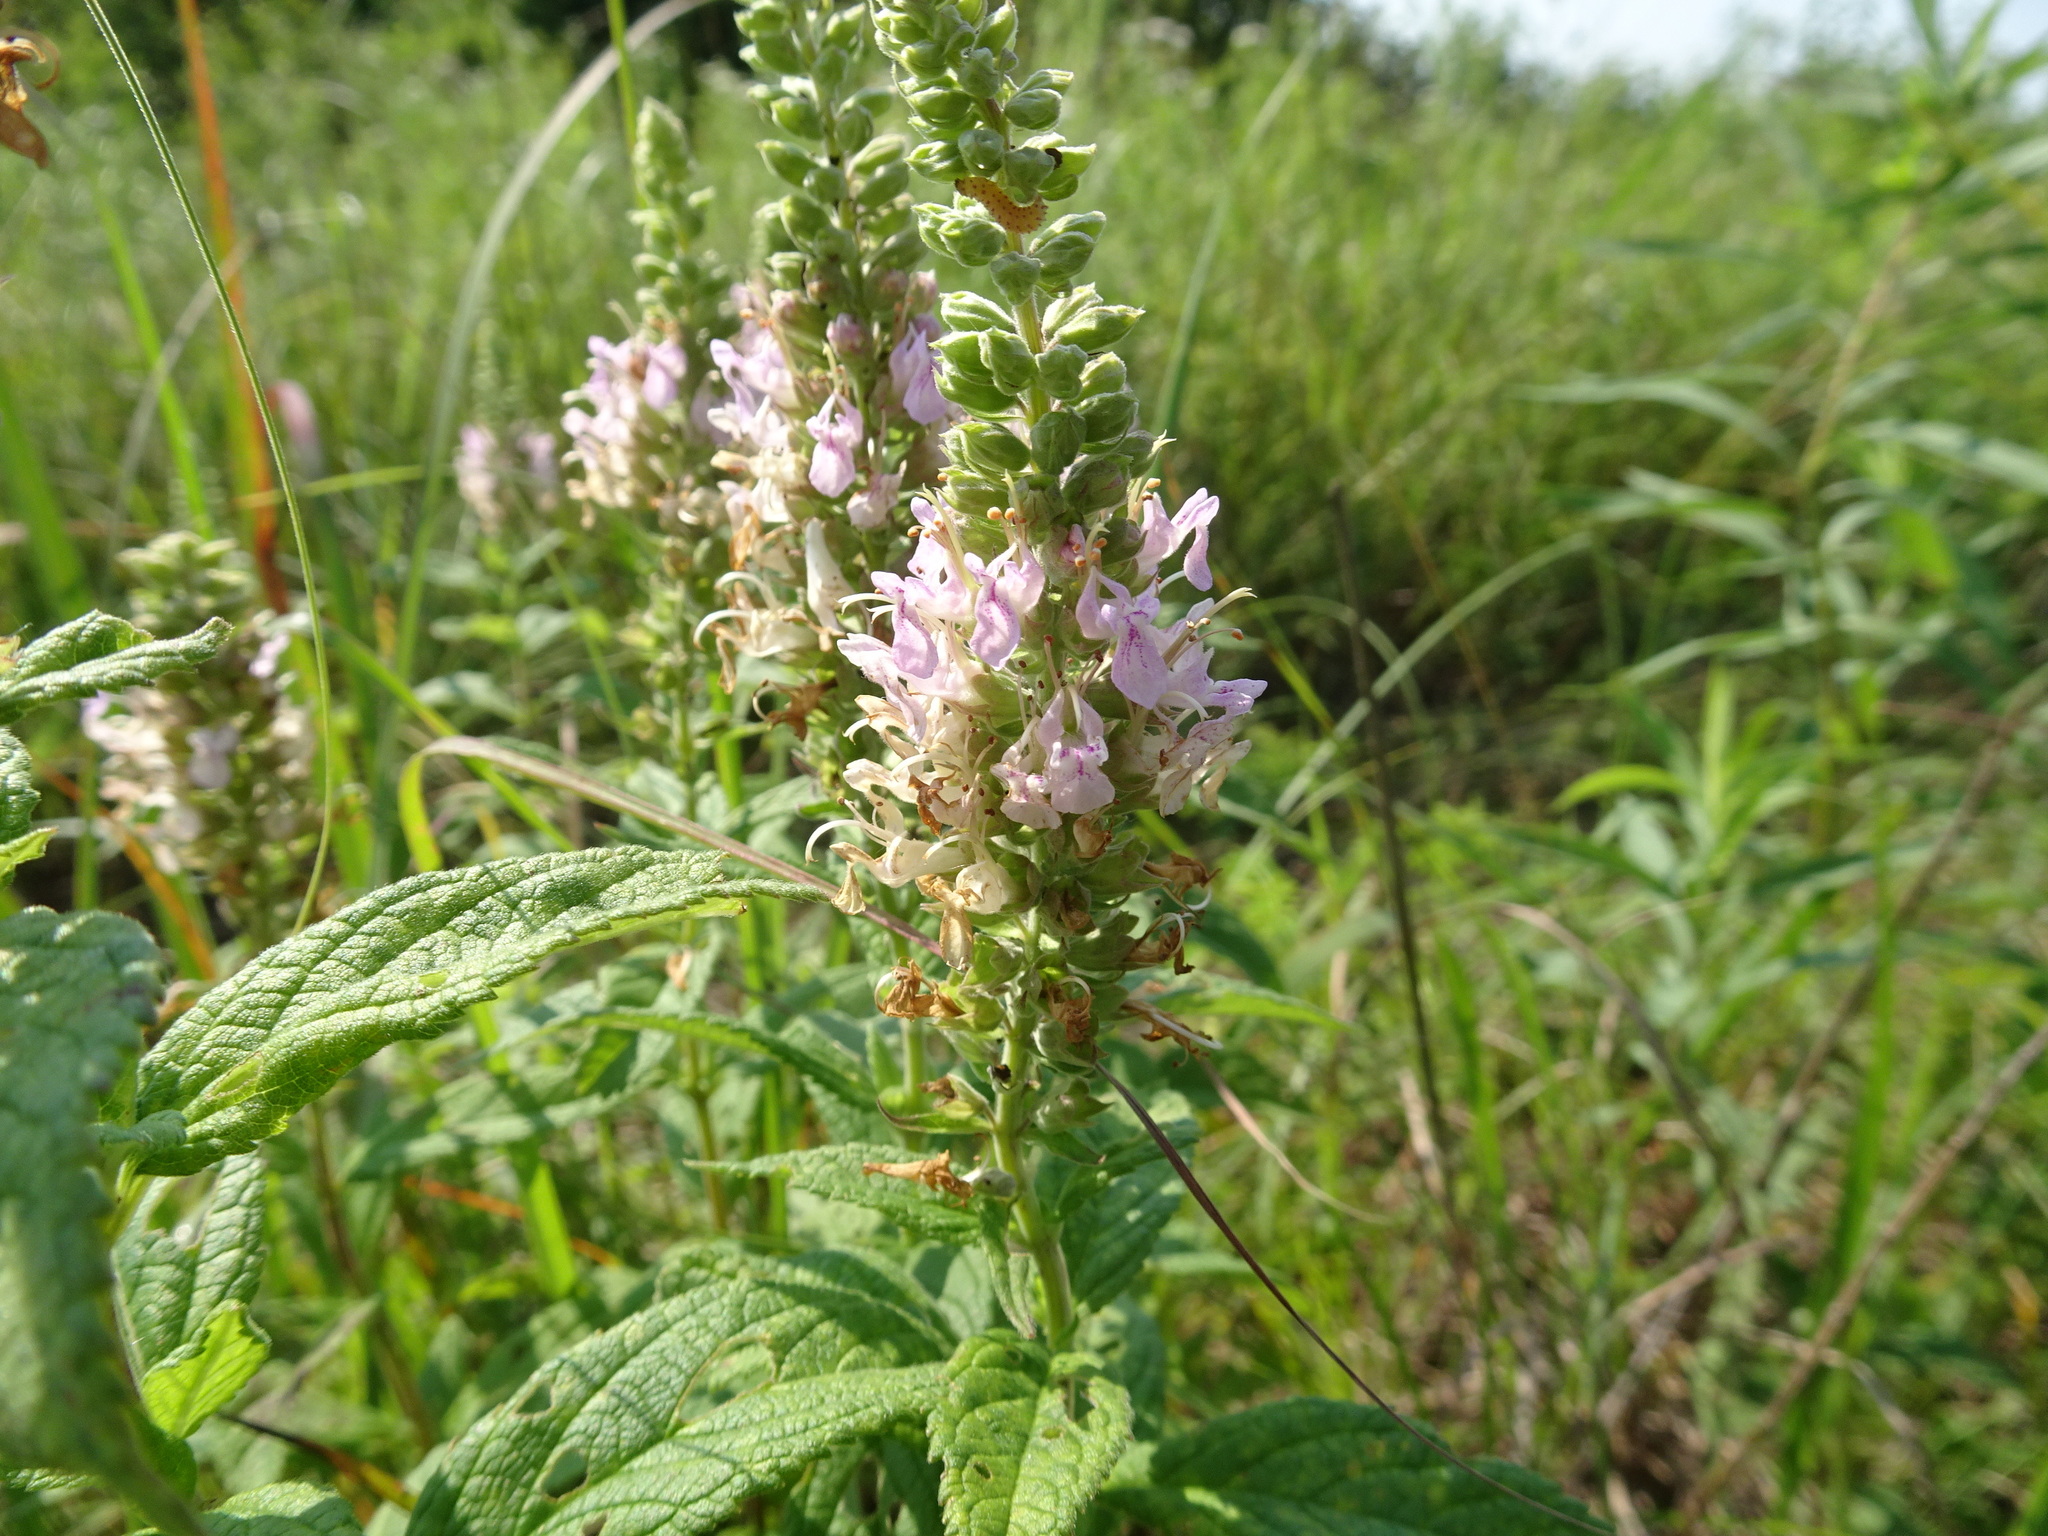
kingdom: Plantae
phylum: Tracheophyta
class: Magnoliopsida
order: Lamiales
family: Lamiaceae
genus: Teucrium
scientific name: Teucrium canadense
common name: American germander
